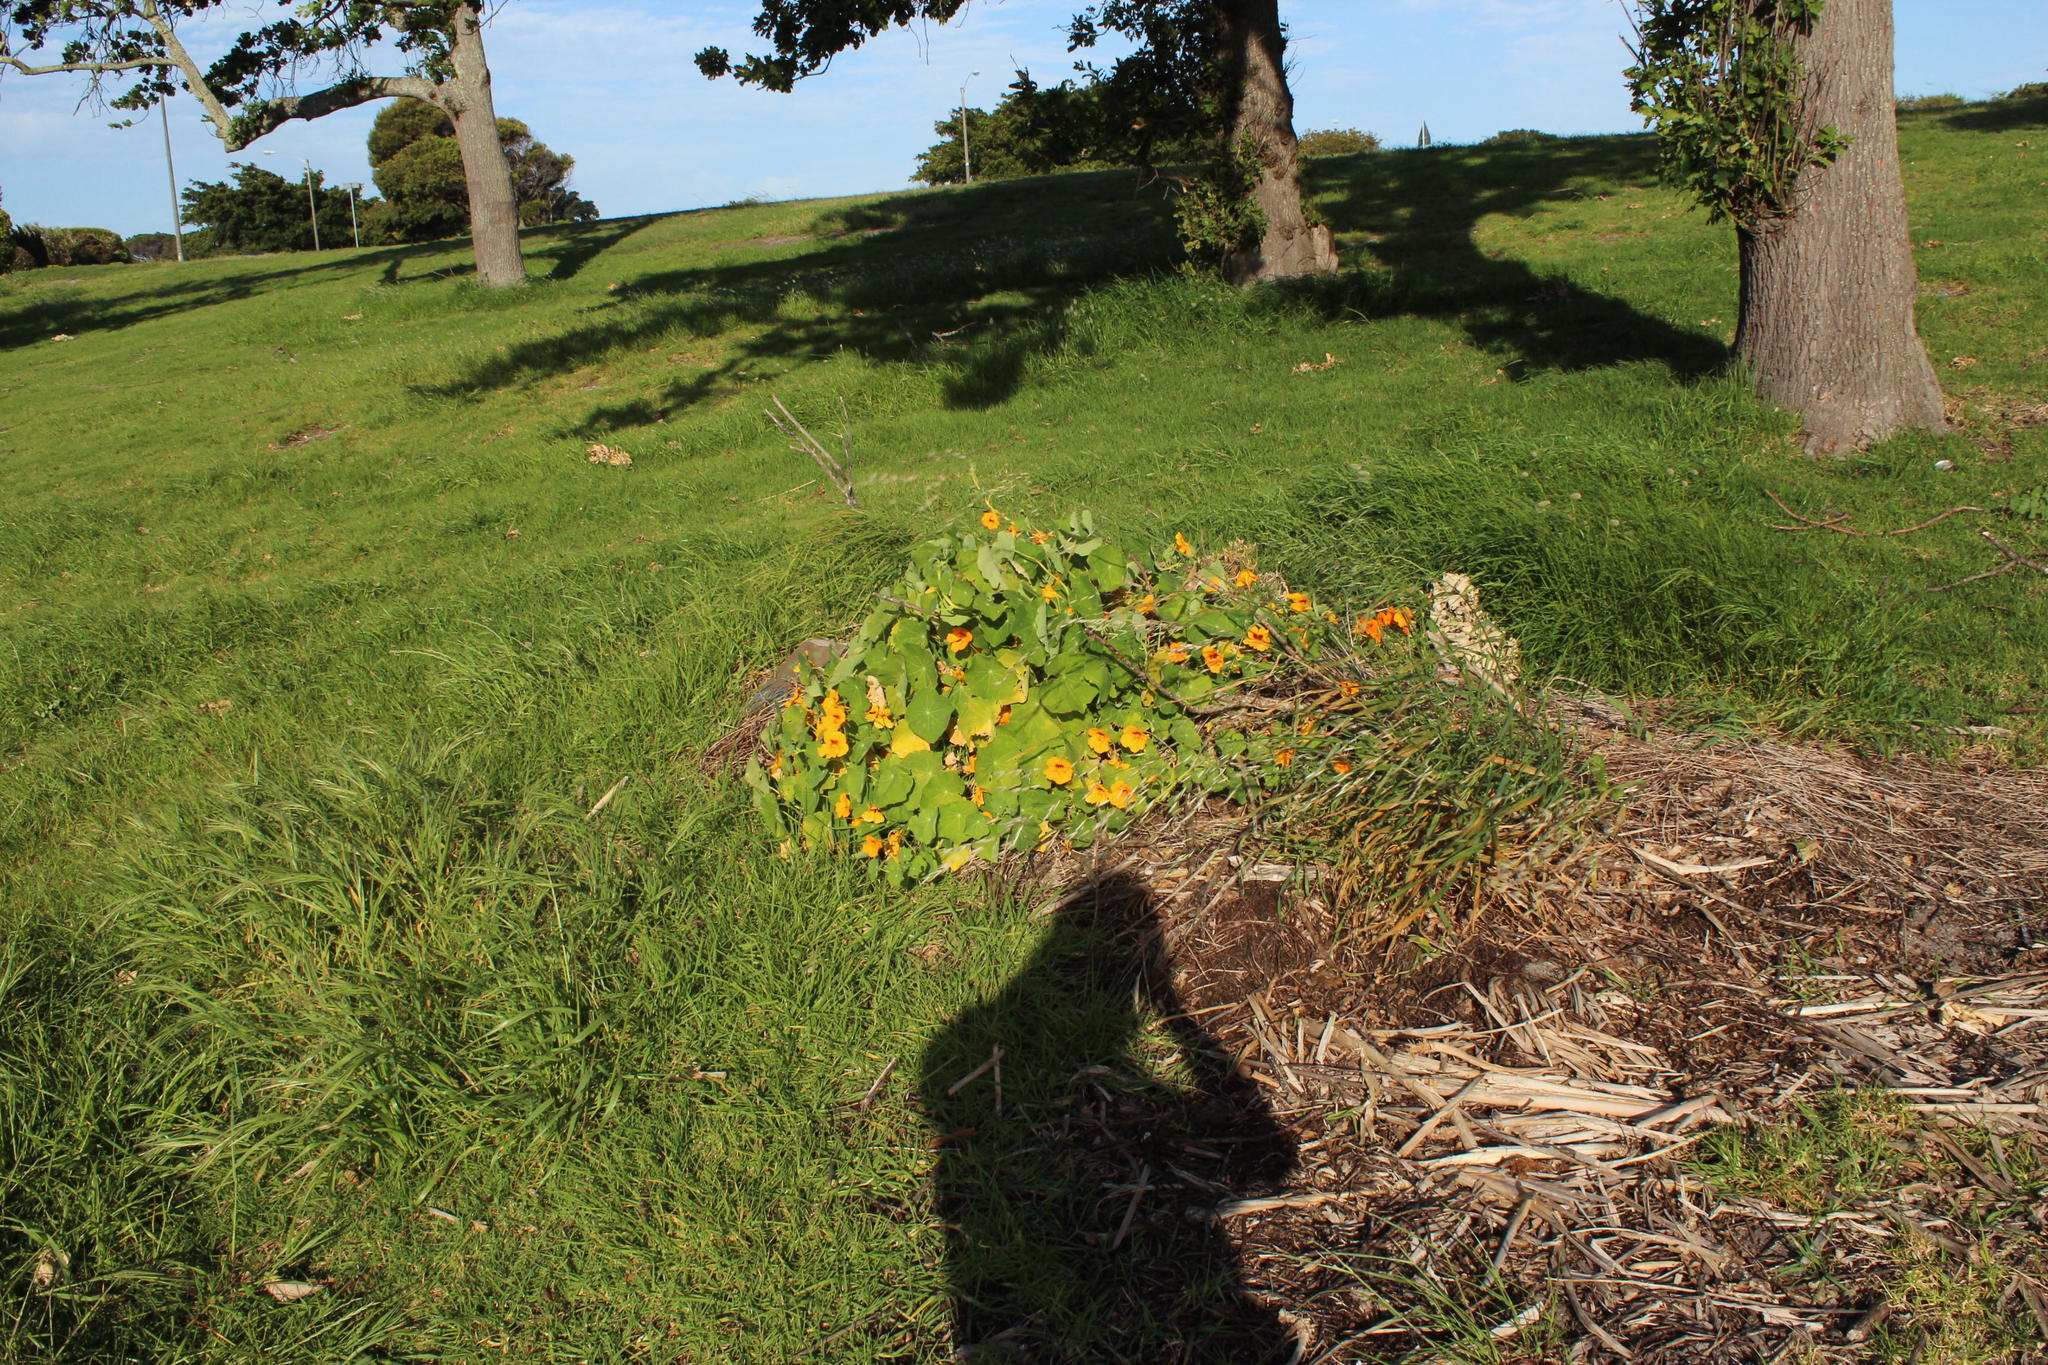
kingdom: Plantae
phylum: Tracheophyta
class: Magnoliopsida
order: Brassicales
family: Tropaeolaceae
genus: Tropaeolum
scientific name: Tropaeolum majus
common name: Nasturtium
